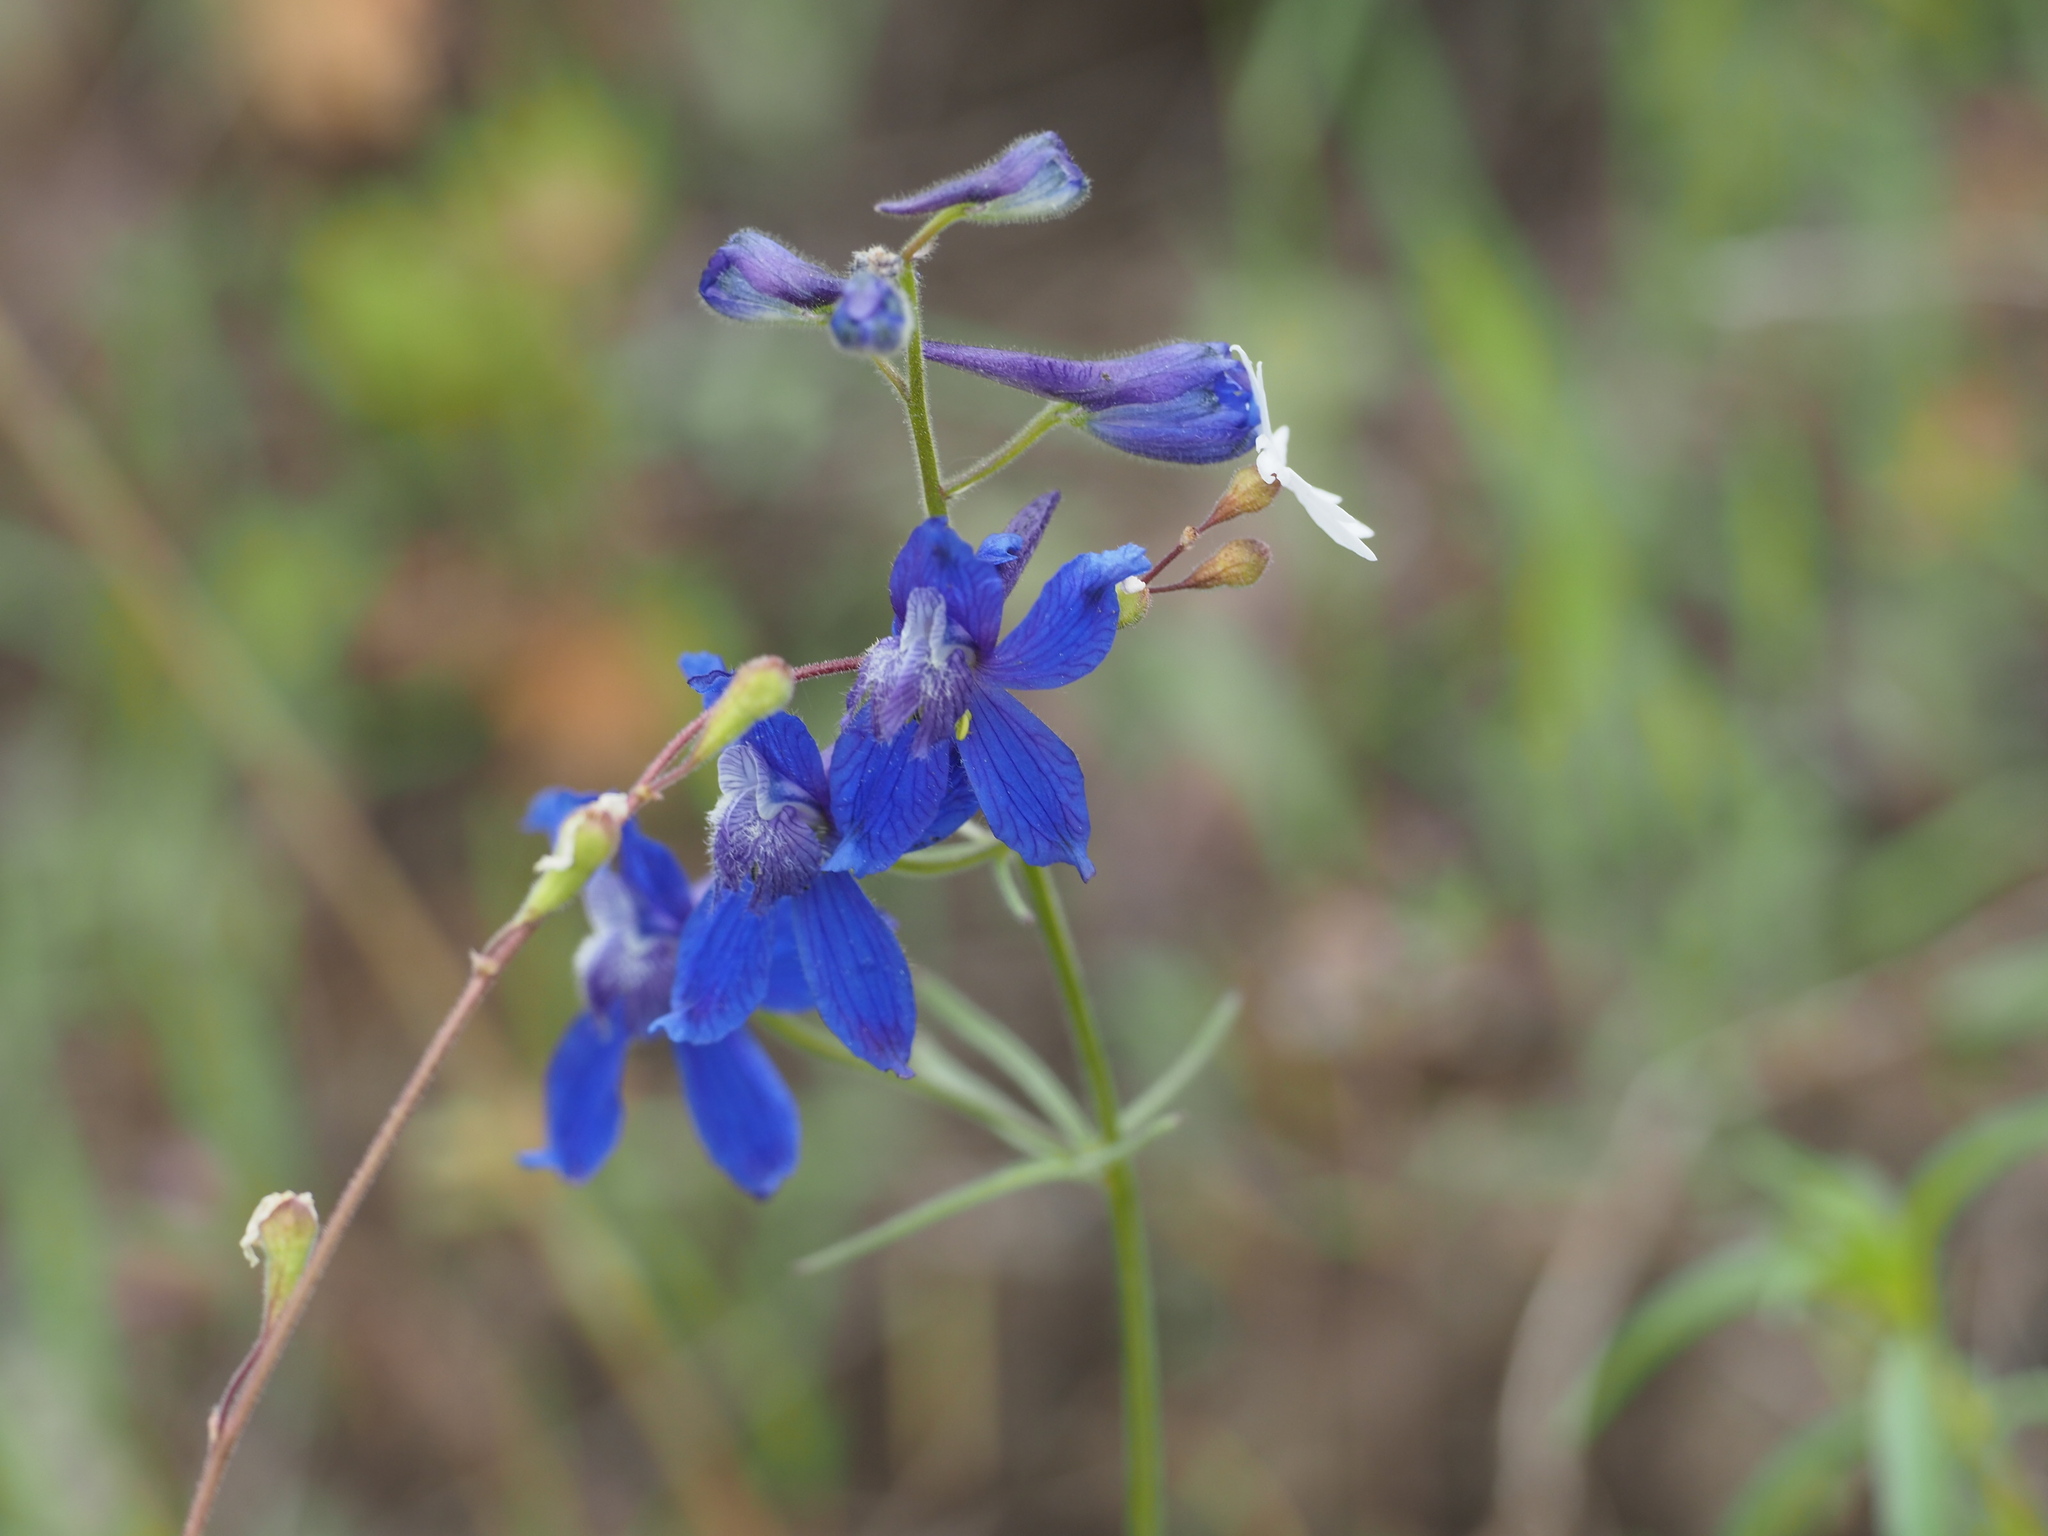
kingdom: Plantae
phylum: Tracheophyta
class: Magnoliopsida
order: Ranunculales
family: Ranunculaceae
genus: Delphinium
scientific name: Delphinium nuttallianum
